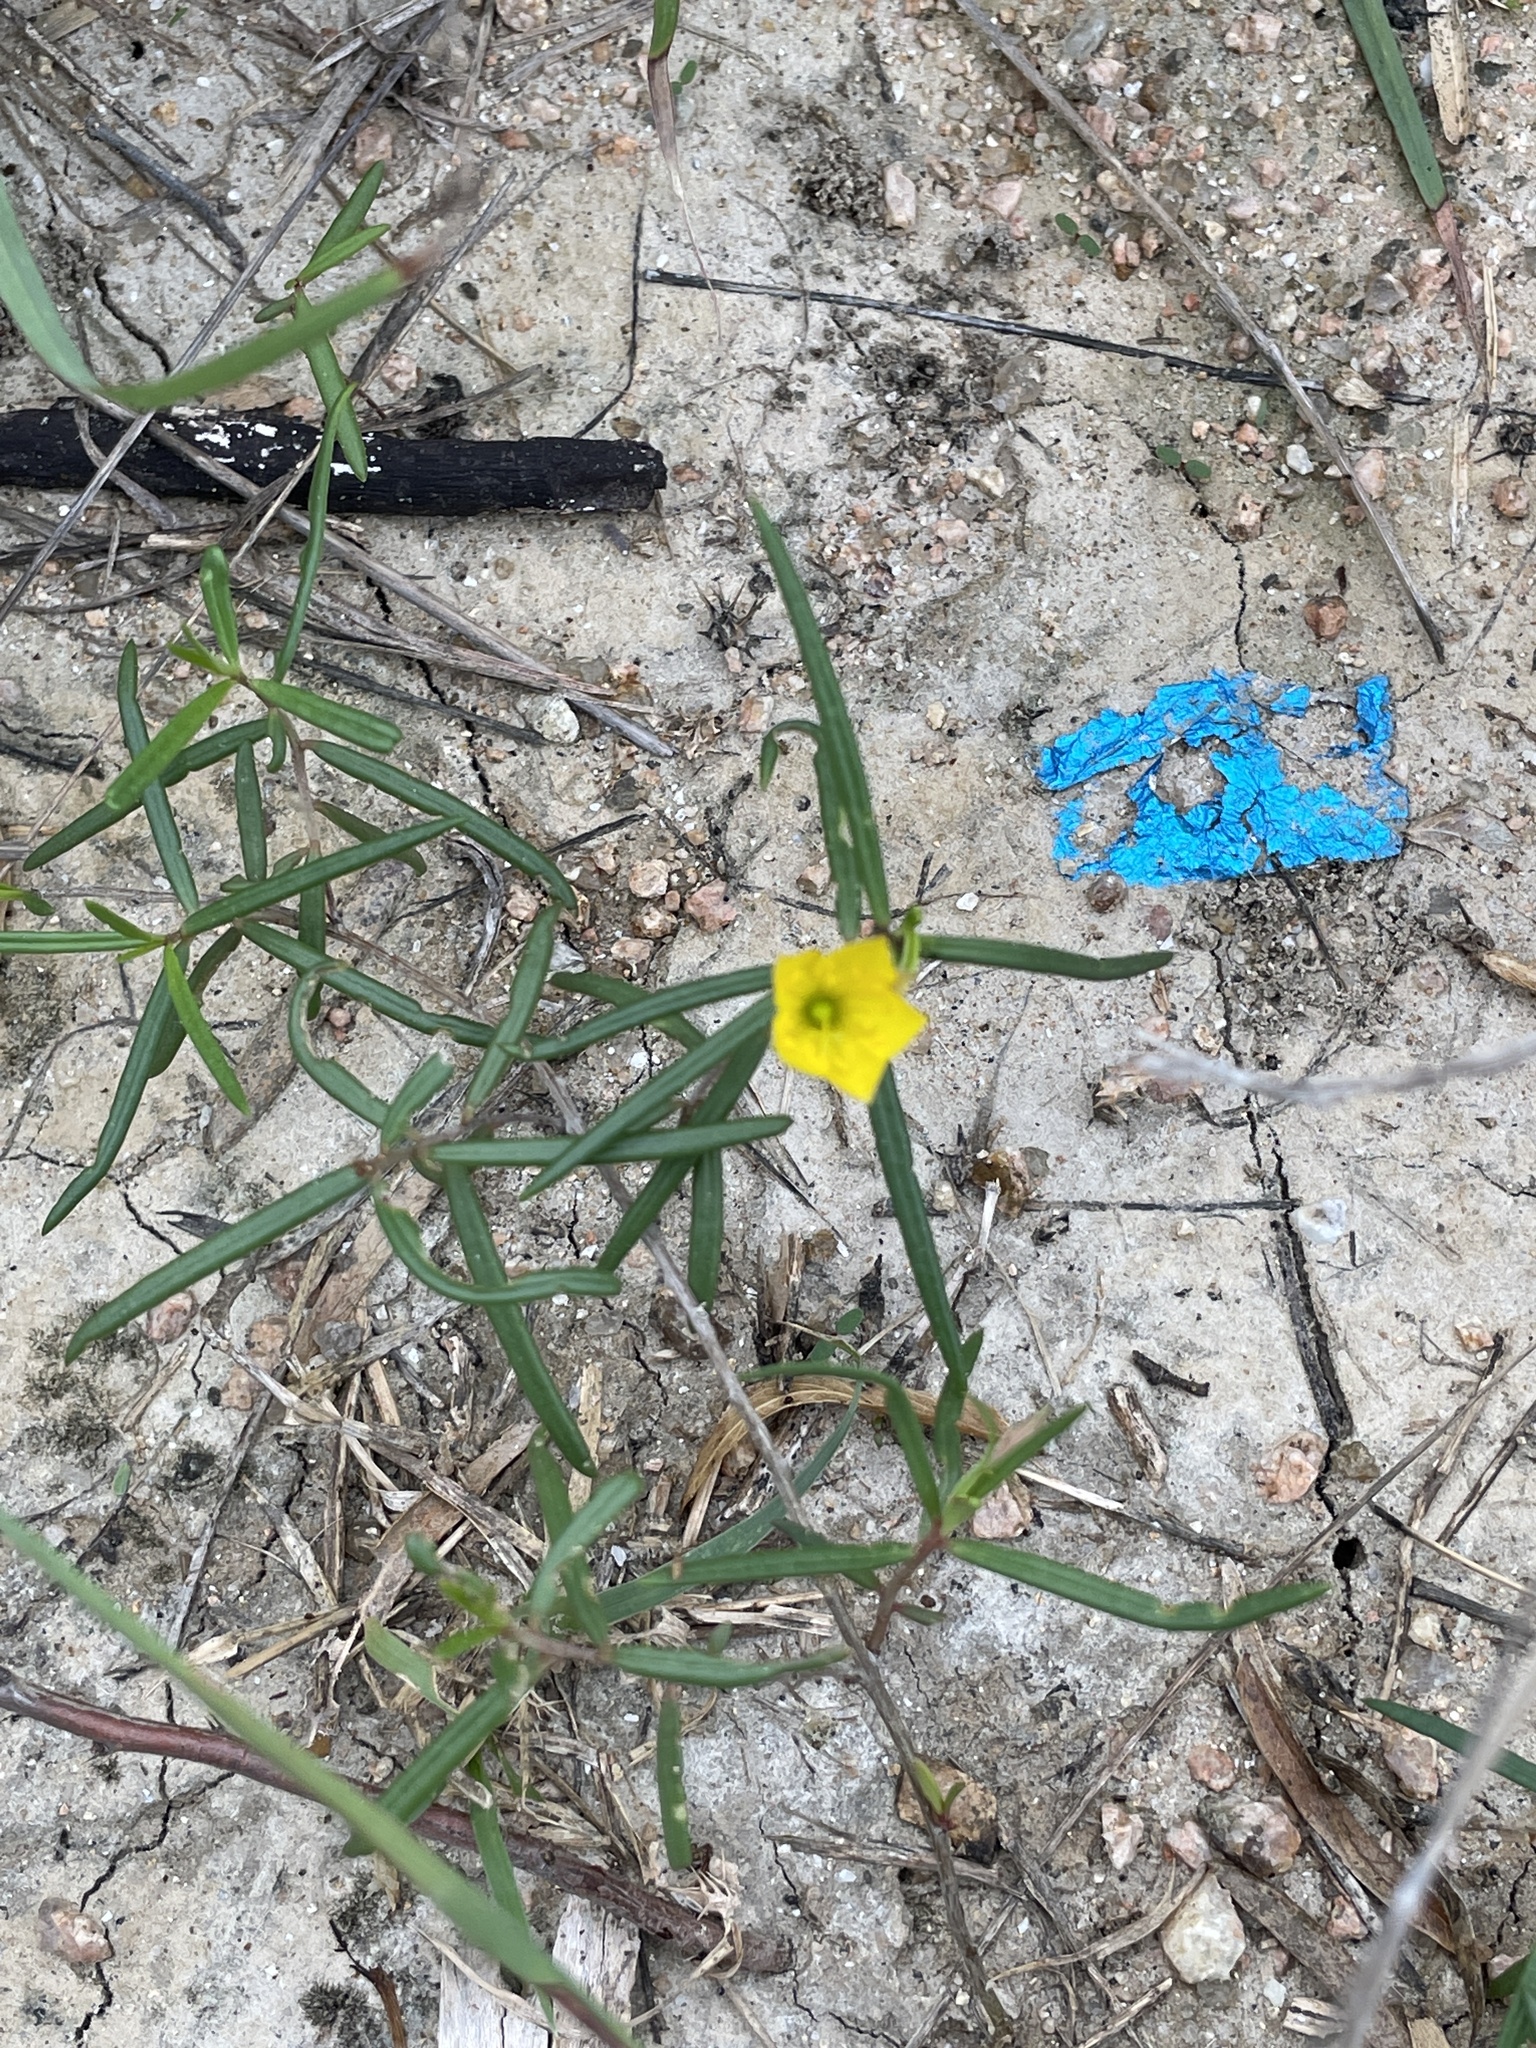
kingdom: Plantae
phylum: Tracheophyta
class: Magnoliopsida
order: Caryophyllales
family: Talinaceae
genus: Talinum
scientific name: Talinum polygaloides
